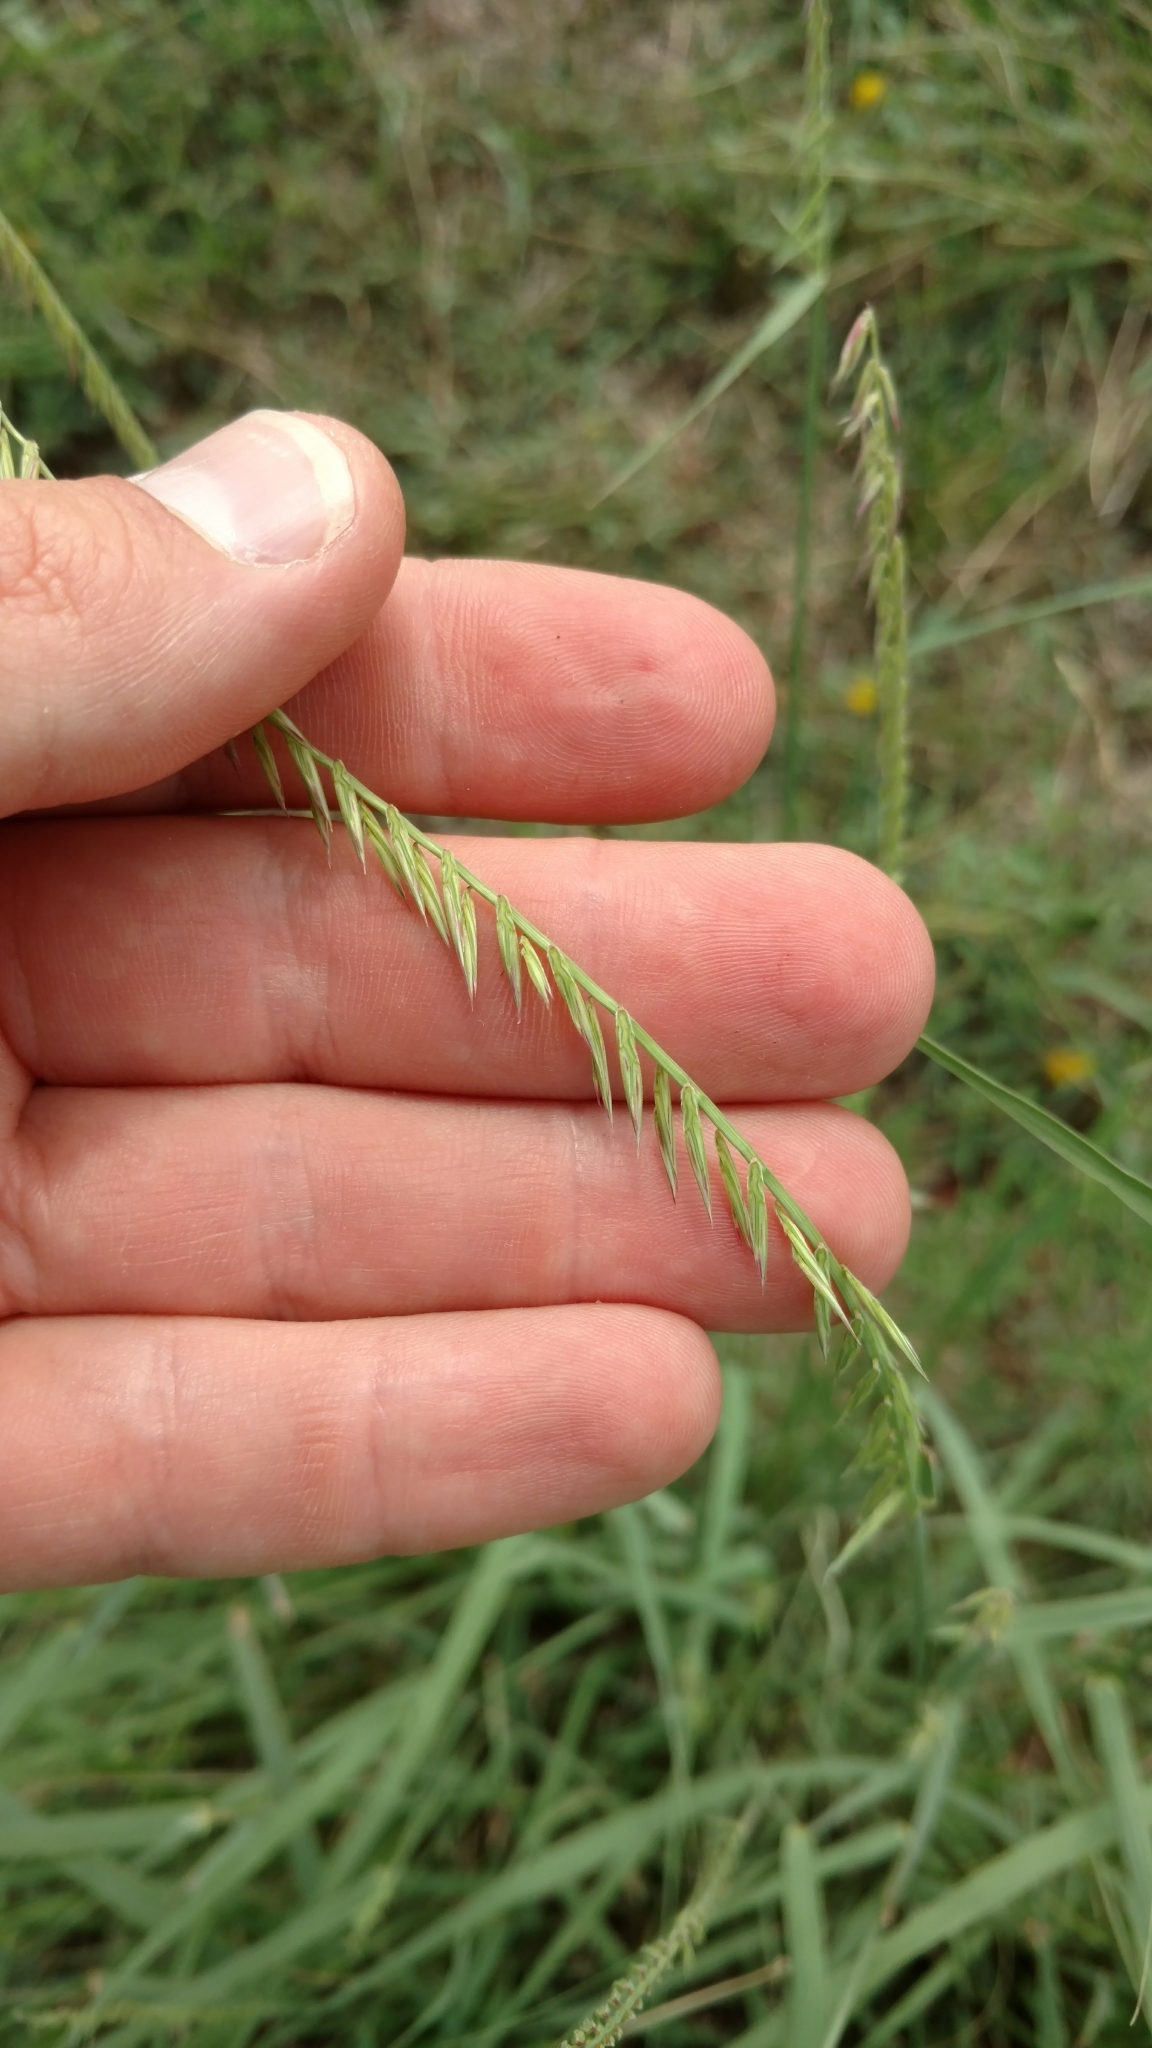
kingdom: Plantae
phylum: Tracheophyta
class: Liliopsida
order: Poales
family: Poaceae
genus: Bouteloua
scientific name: Bouteloua curtipendula
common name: Side-oats grama
